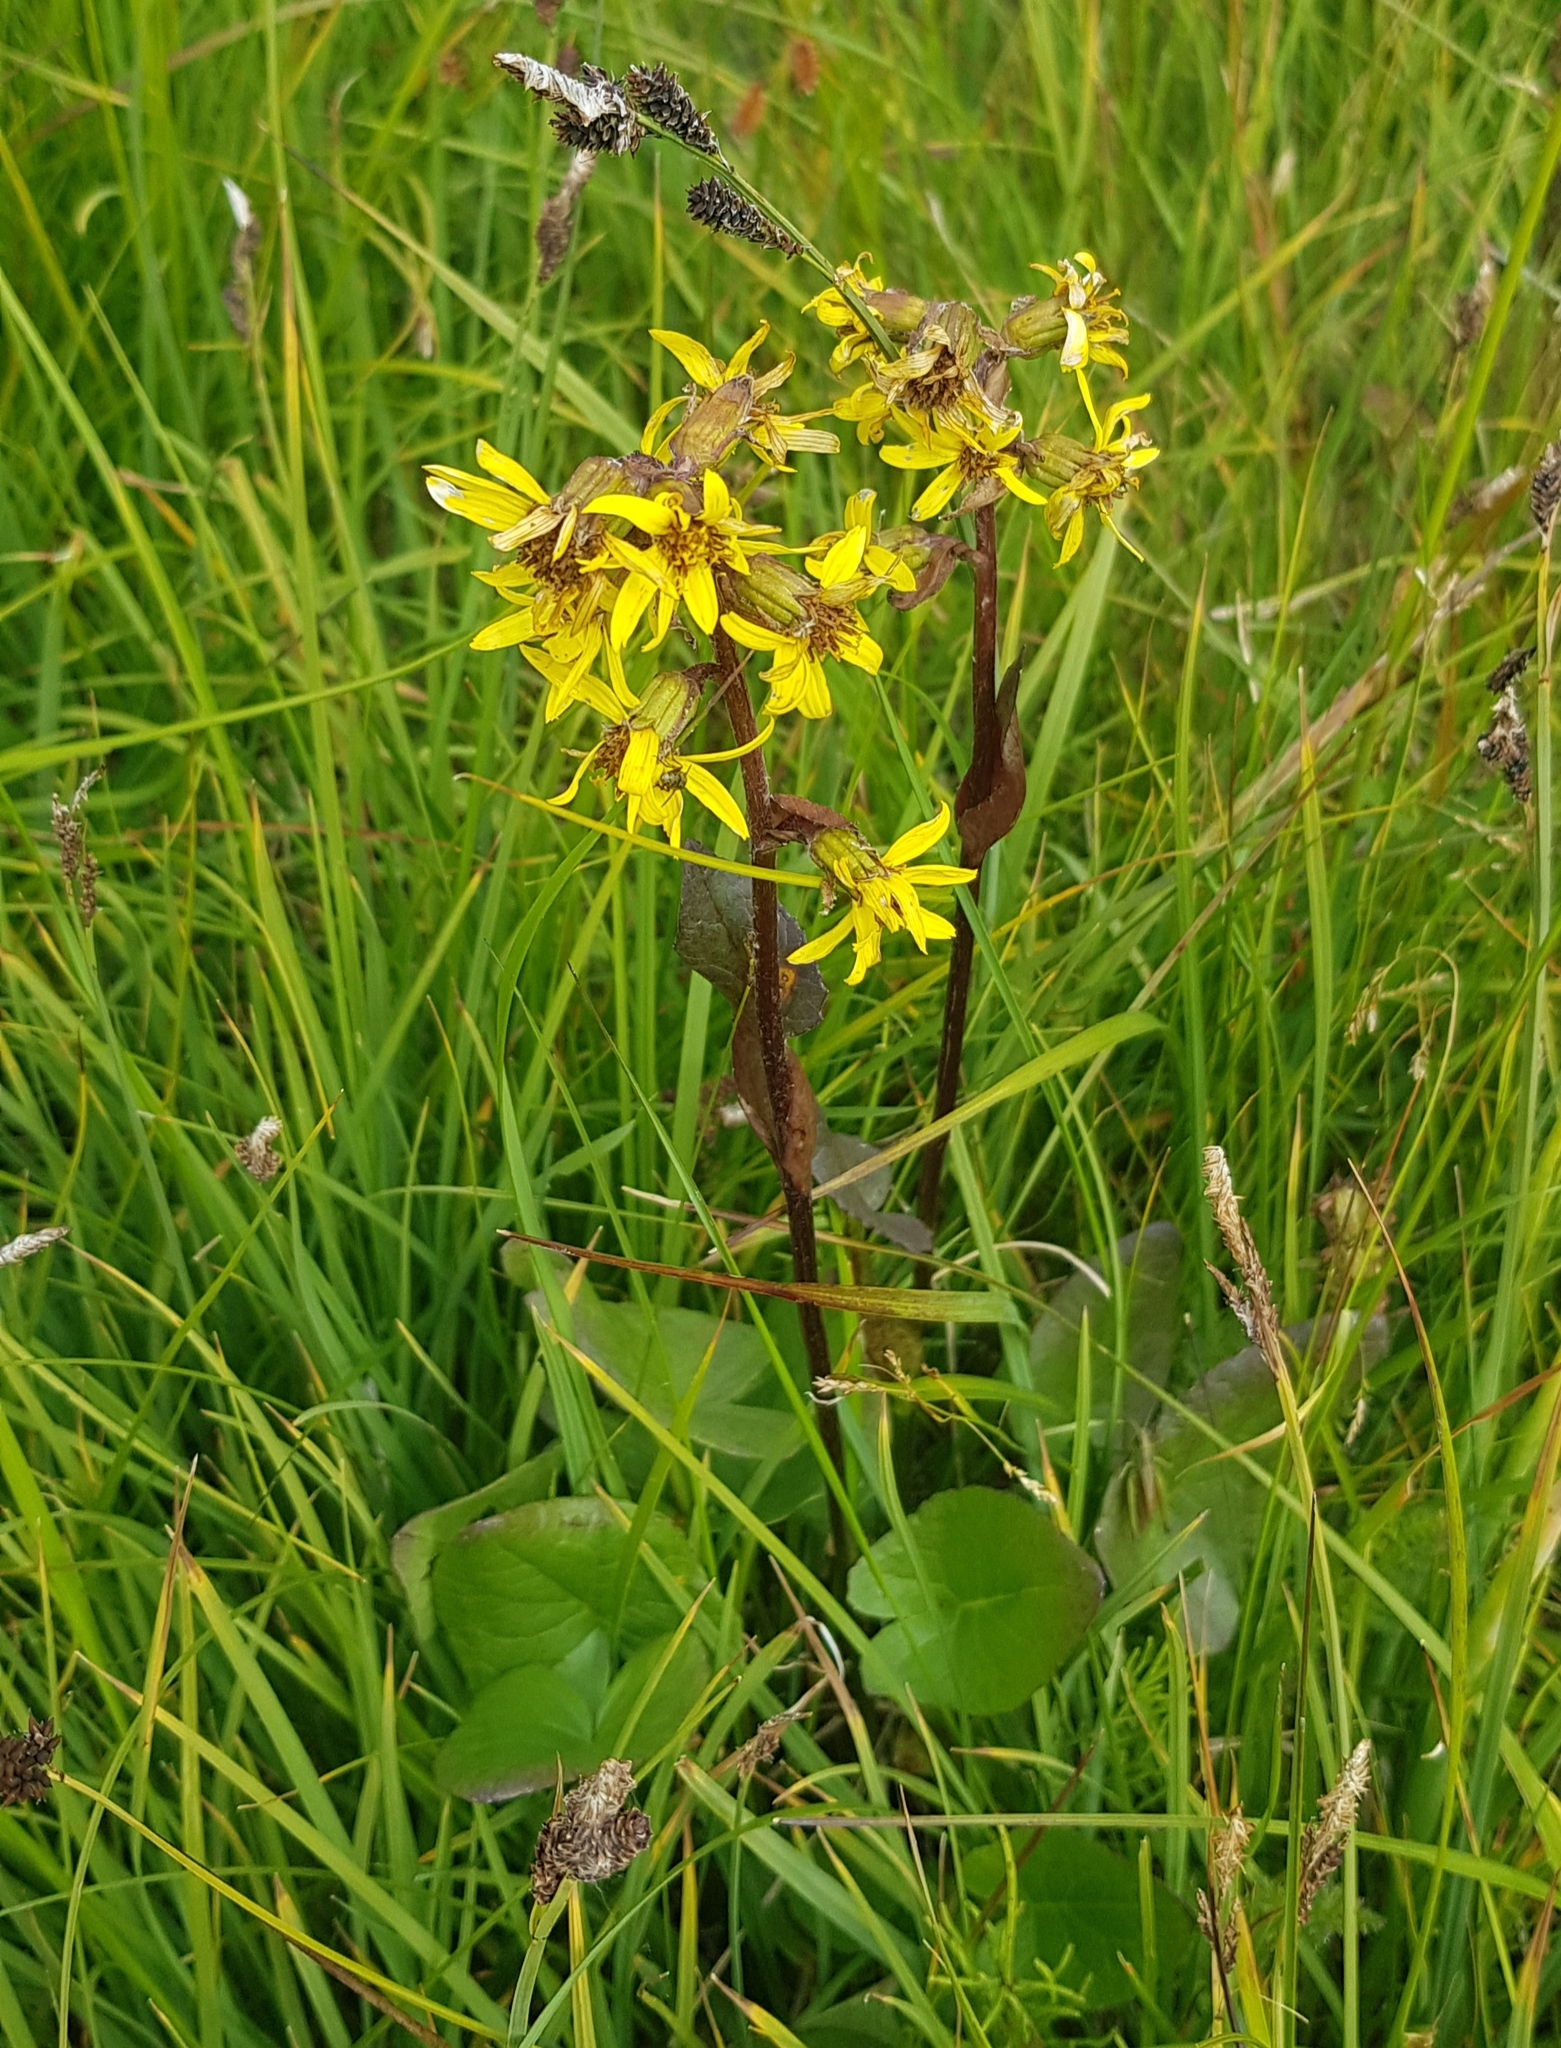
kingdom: Plantae
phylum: Tracheophyta
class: Magnoliopsida
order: Asterales
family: Asteraceae
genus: Ligularia
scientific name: Ligularia sibirica
